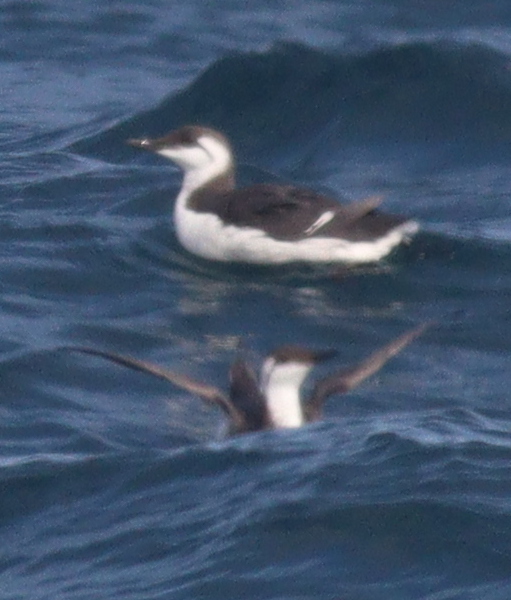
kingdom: Animalia
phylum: Chordata
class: Aves
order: Charadriiformes
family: Alcidae
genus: Uria
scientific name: Uria aalge
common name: Common murre
